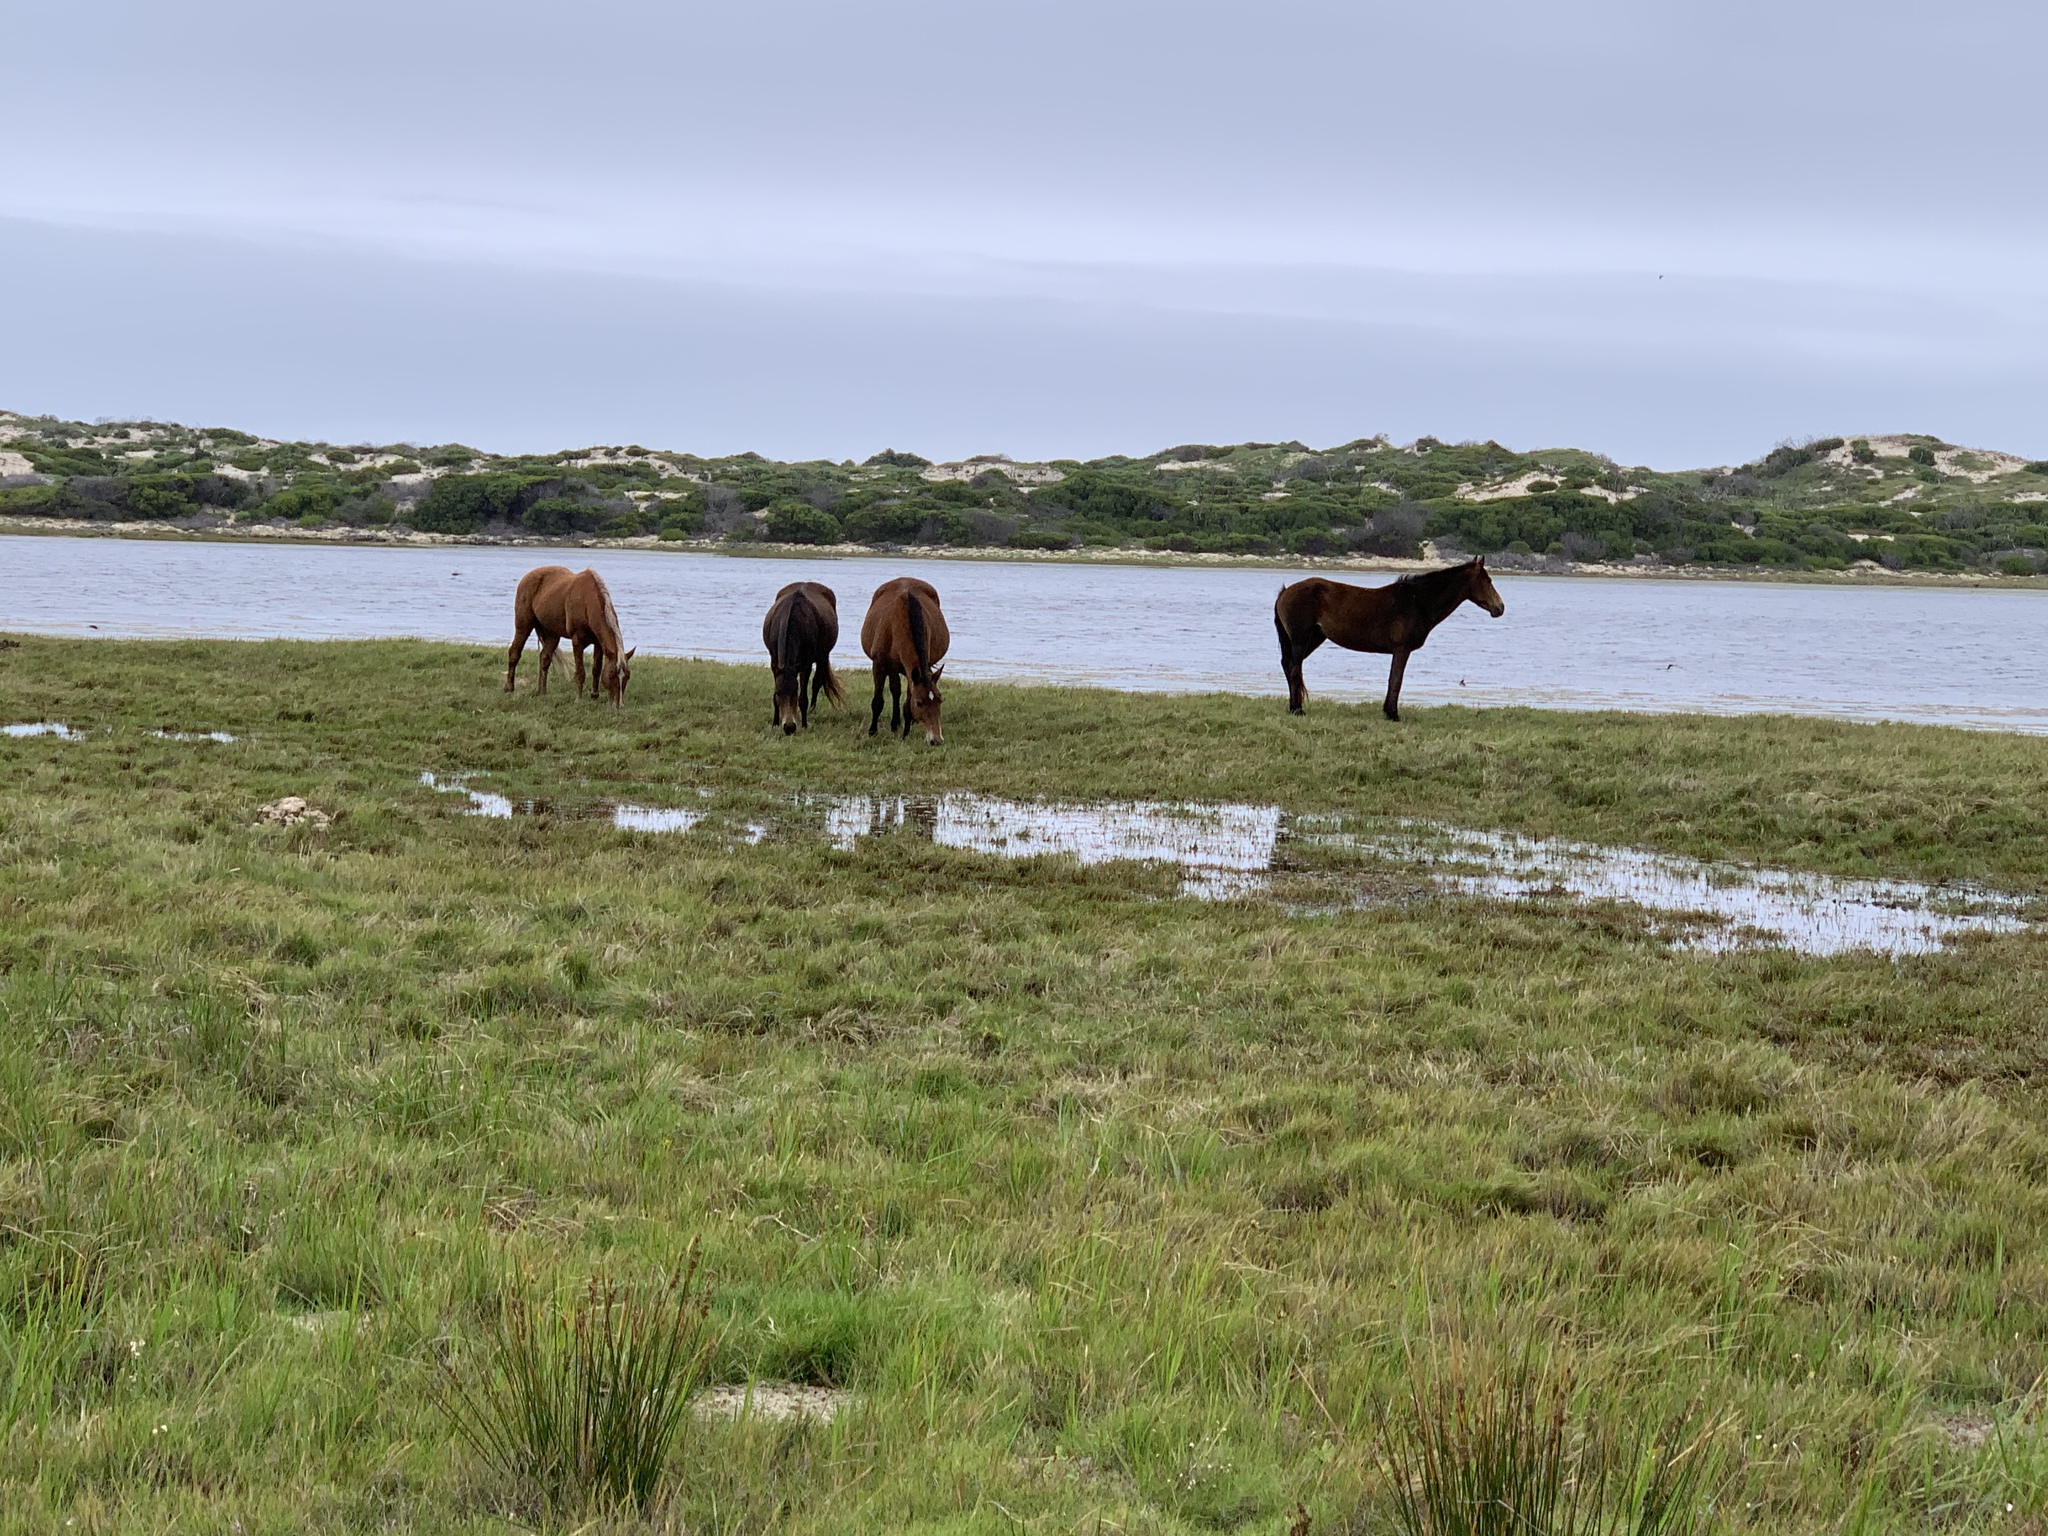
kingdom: Animalia
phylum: Chordata
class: Mammalia
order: Perissodactyla
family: Equidae
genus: Equus
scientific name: Equus caballus
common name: Horse
